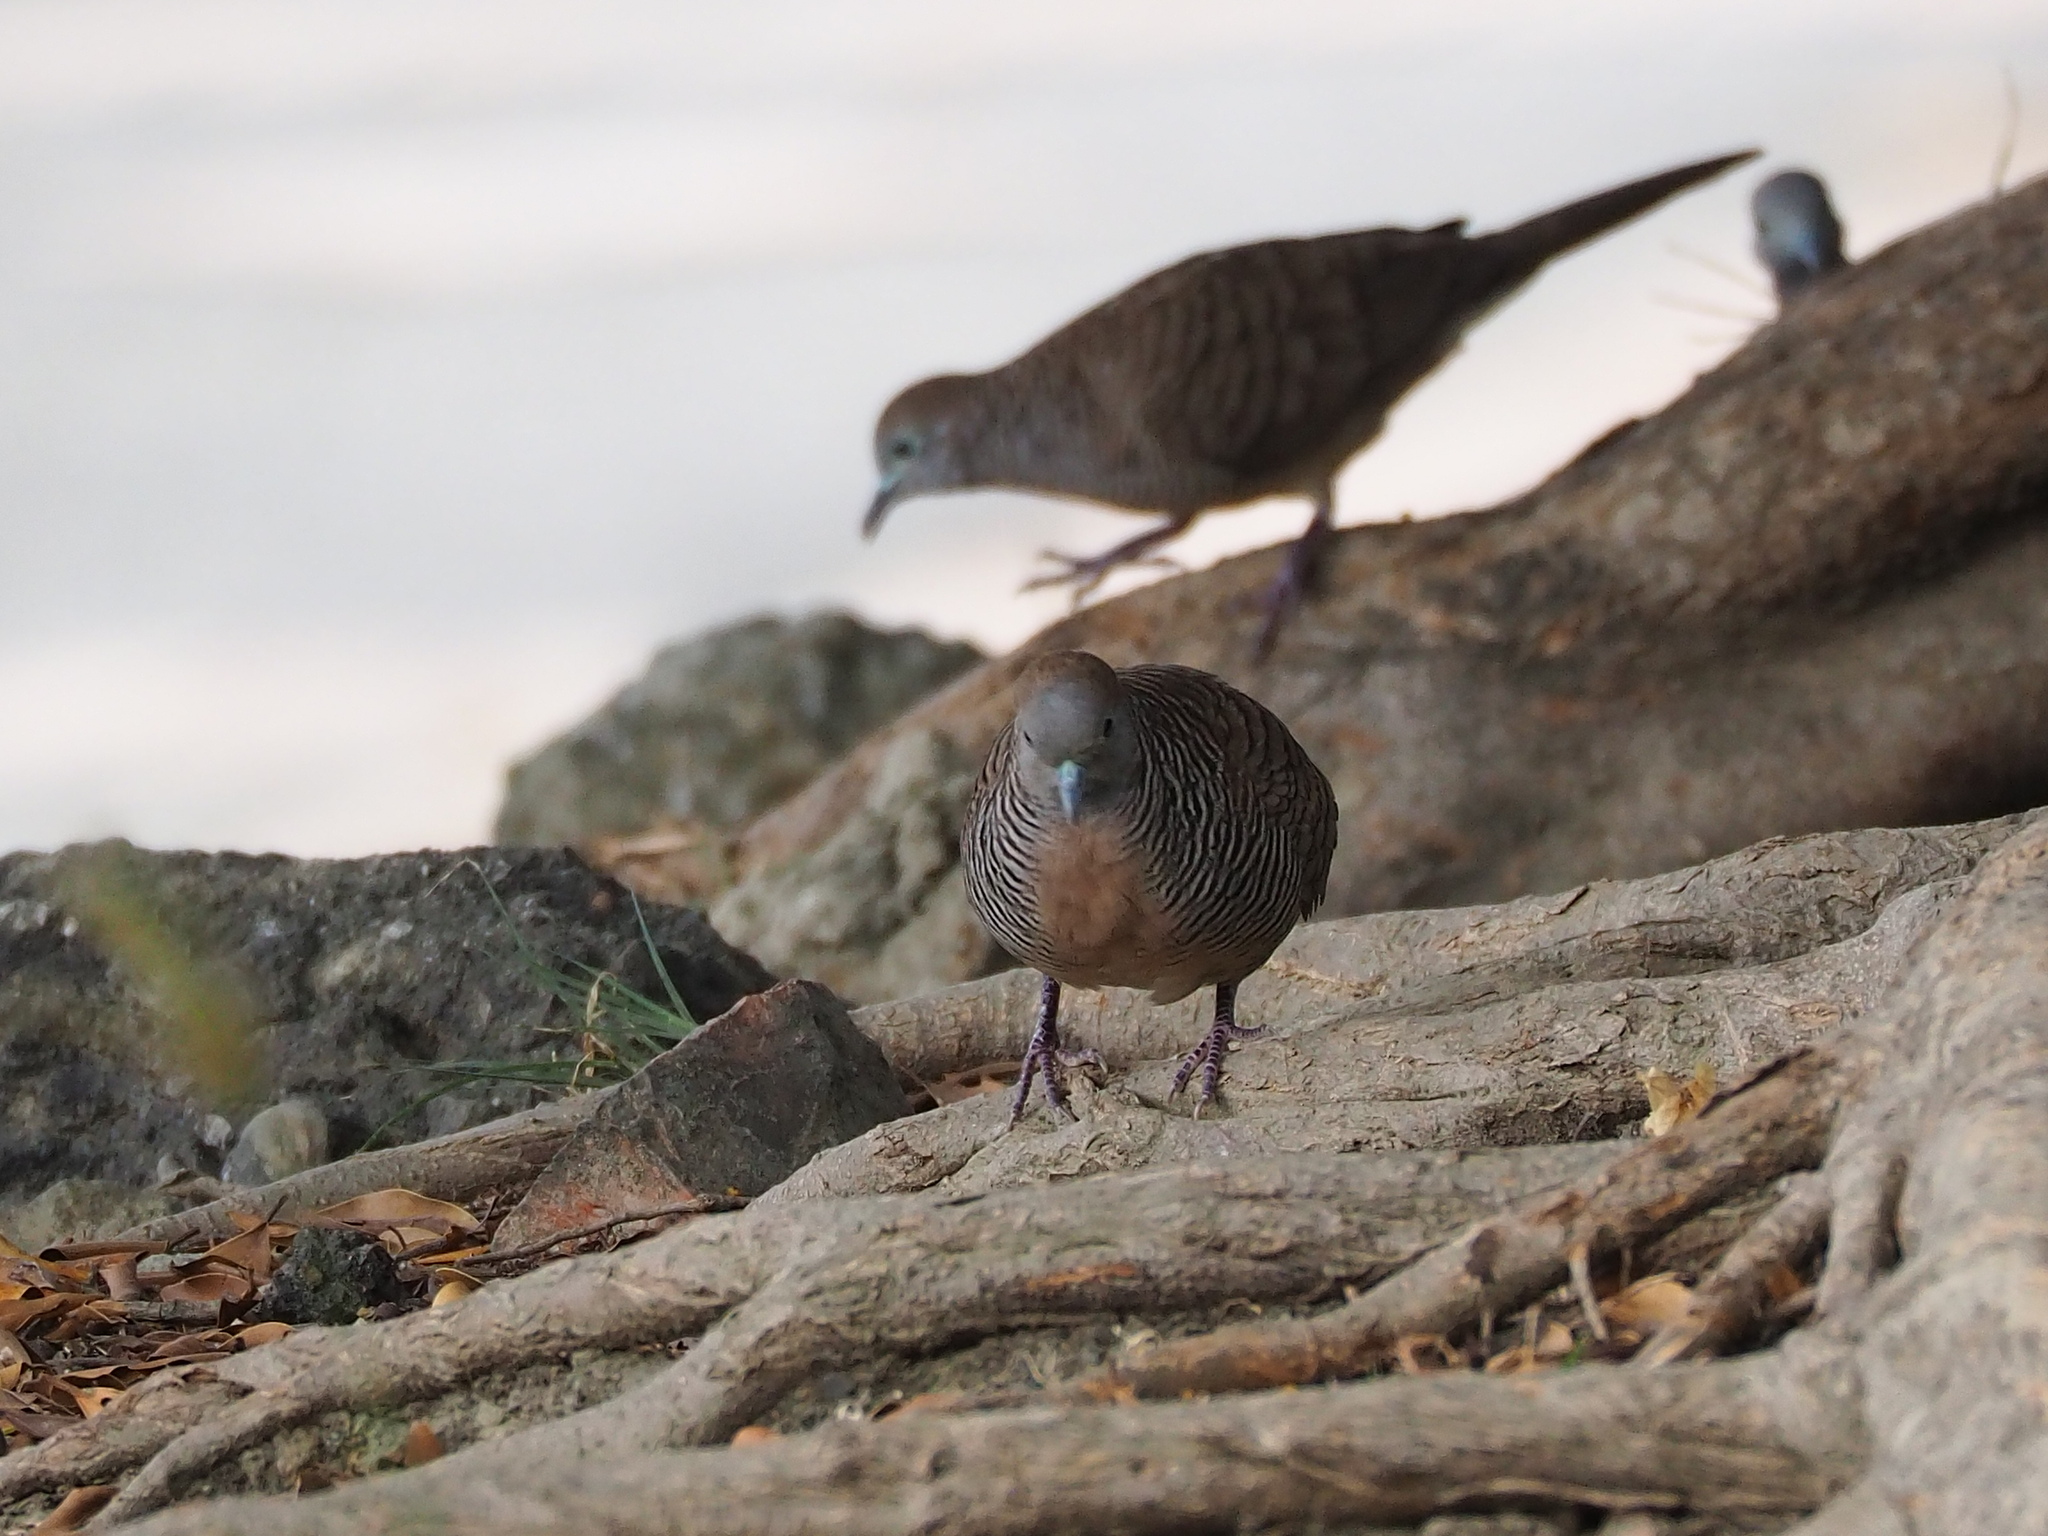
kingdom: Animalia
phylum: Chordata
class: Aves
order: Columbiformes
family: Columbidae
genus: Geopelia
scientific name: Geopelia striata
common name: Zebra dove
